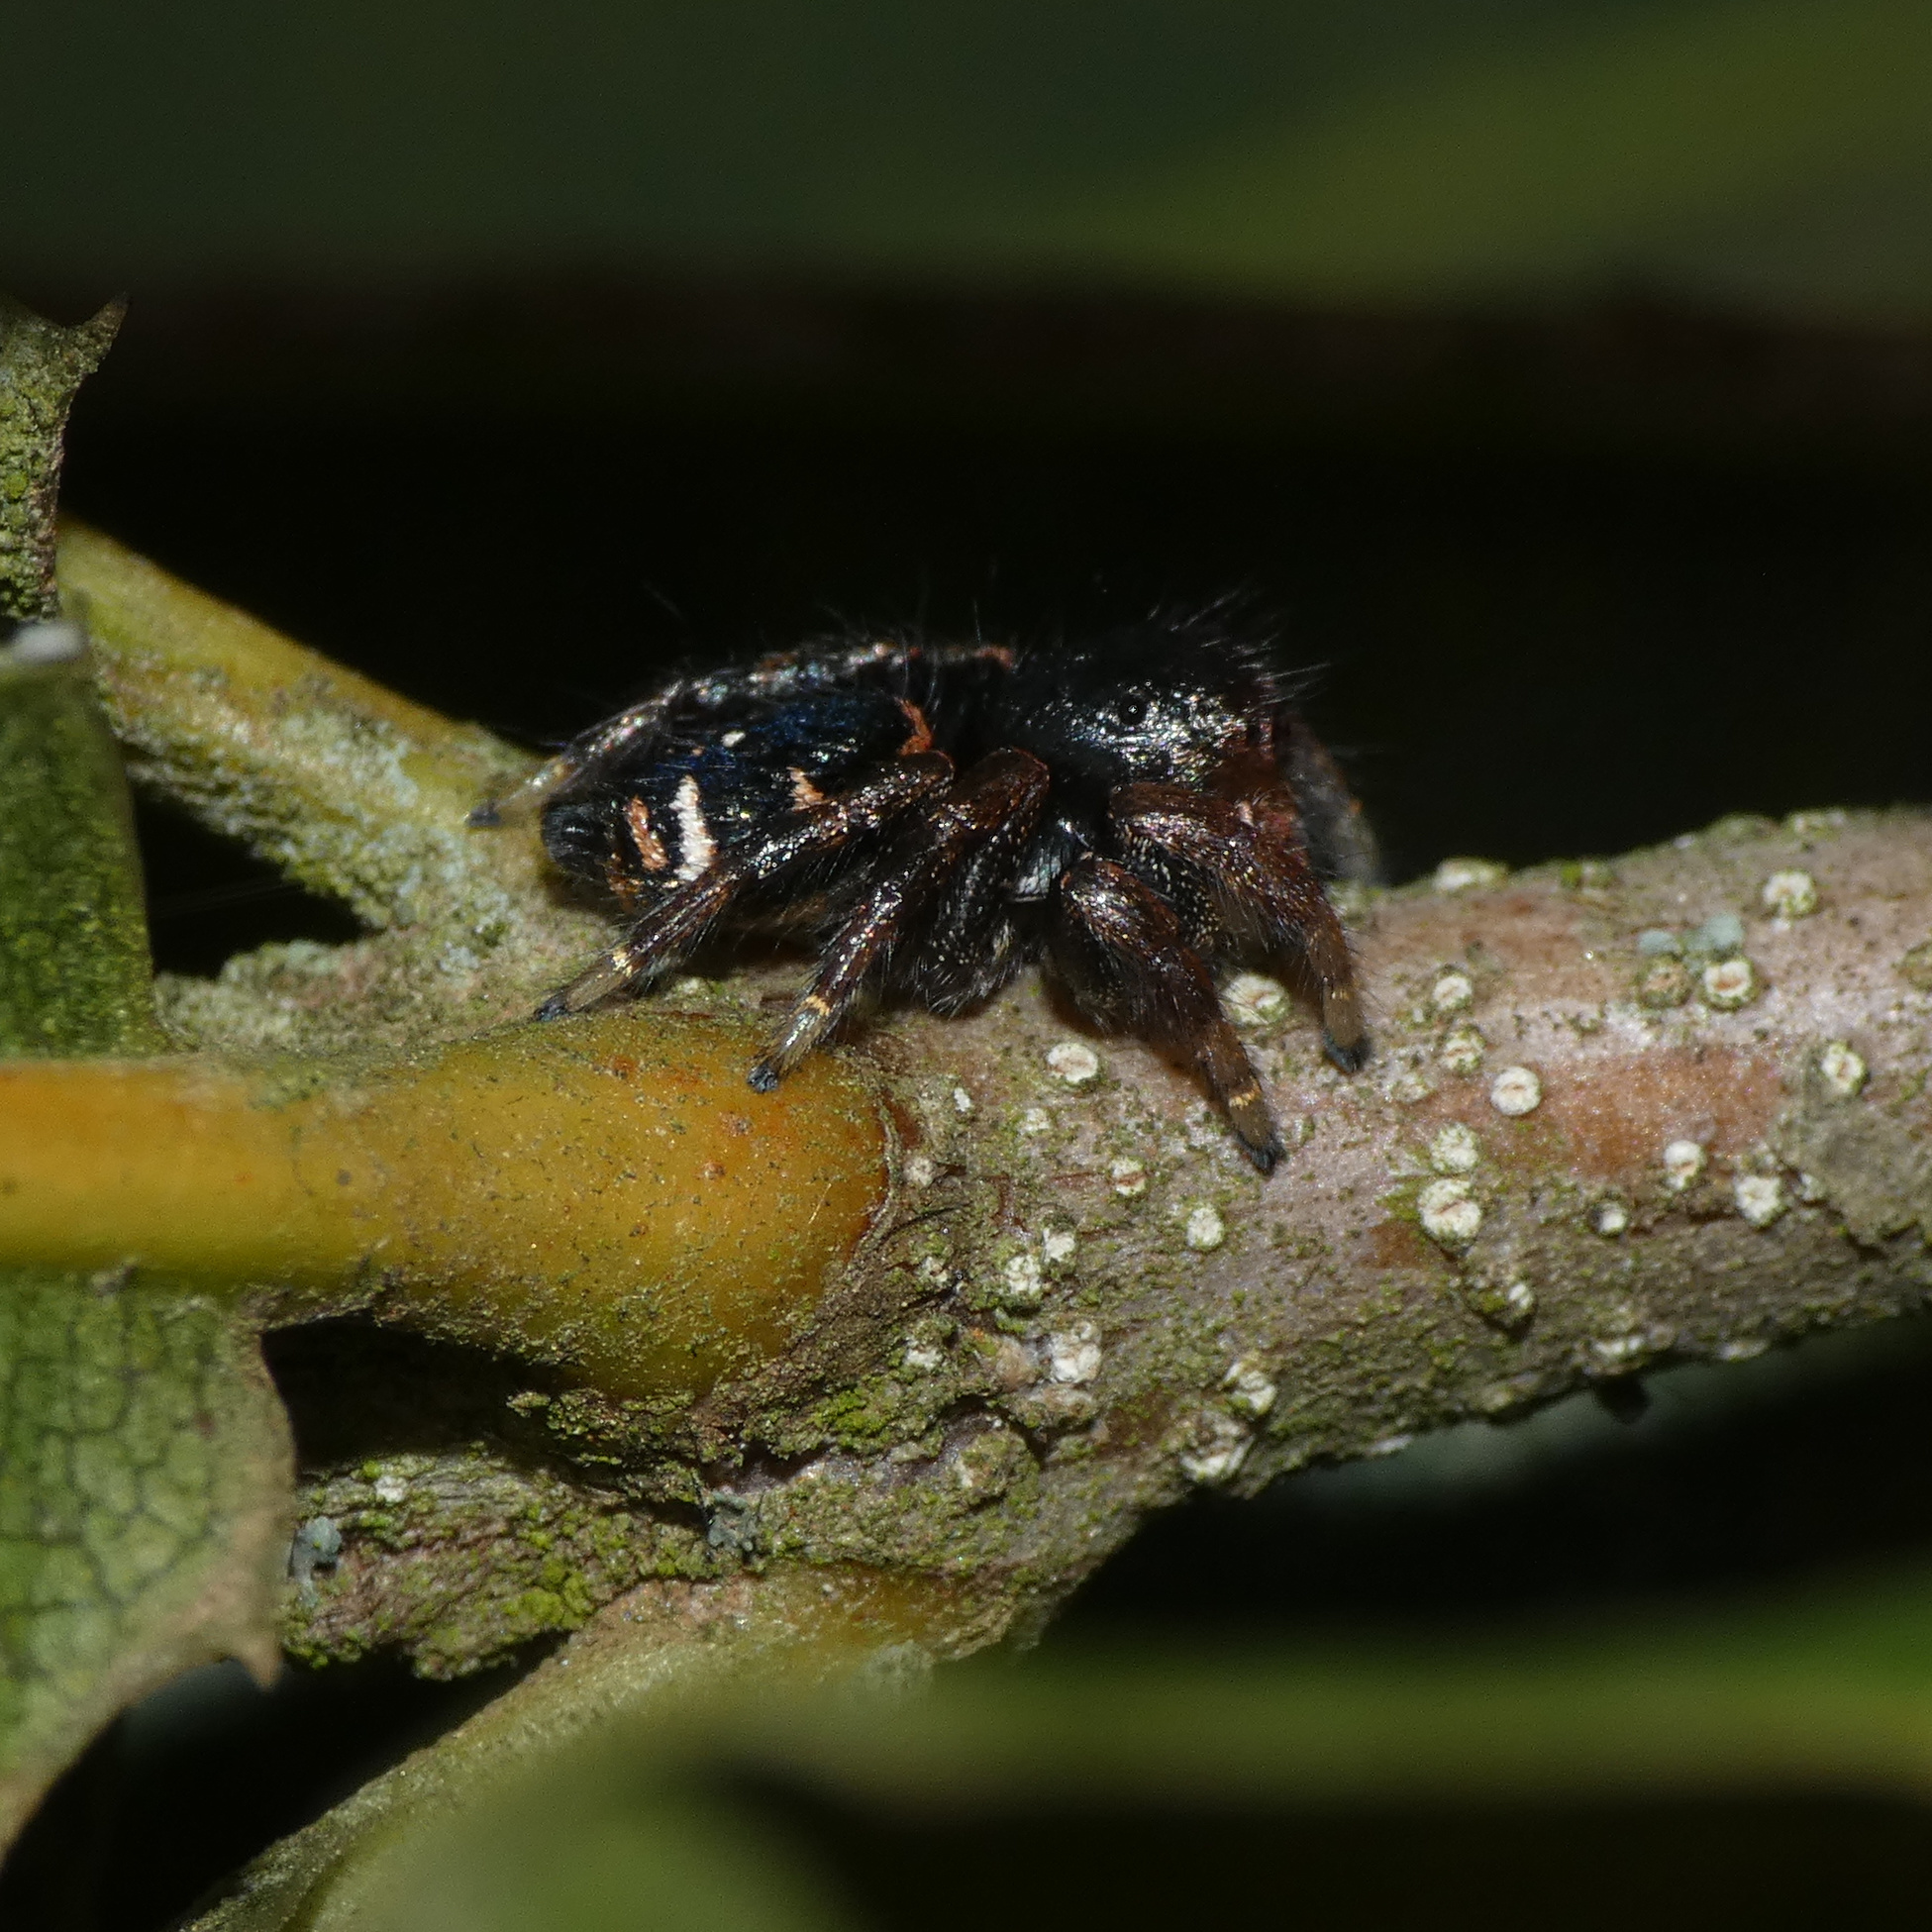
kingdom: Animalia
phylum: Arthropoda
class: Arachnida
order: Araneae
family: Salticidae
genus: Baryphas
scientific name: Baryphas ahenus
